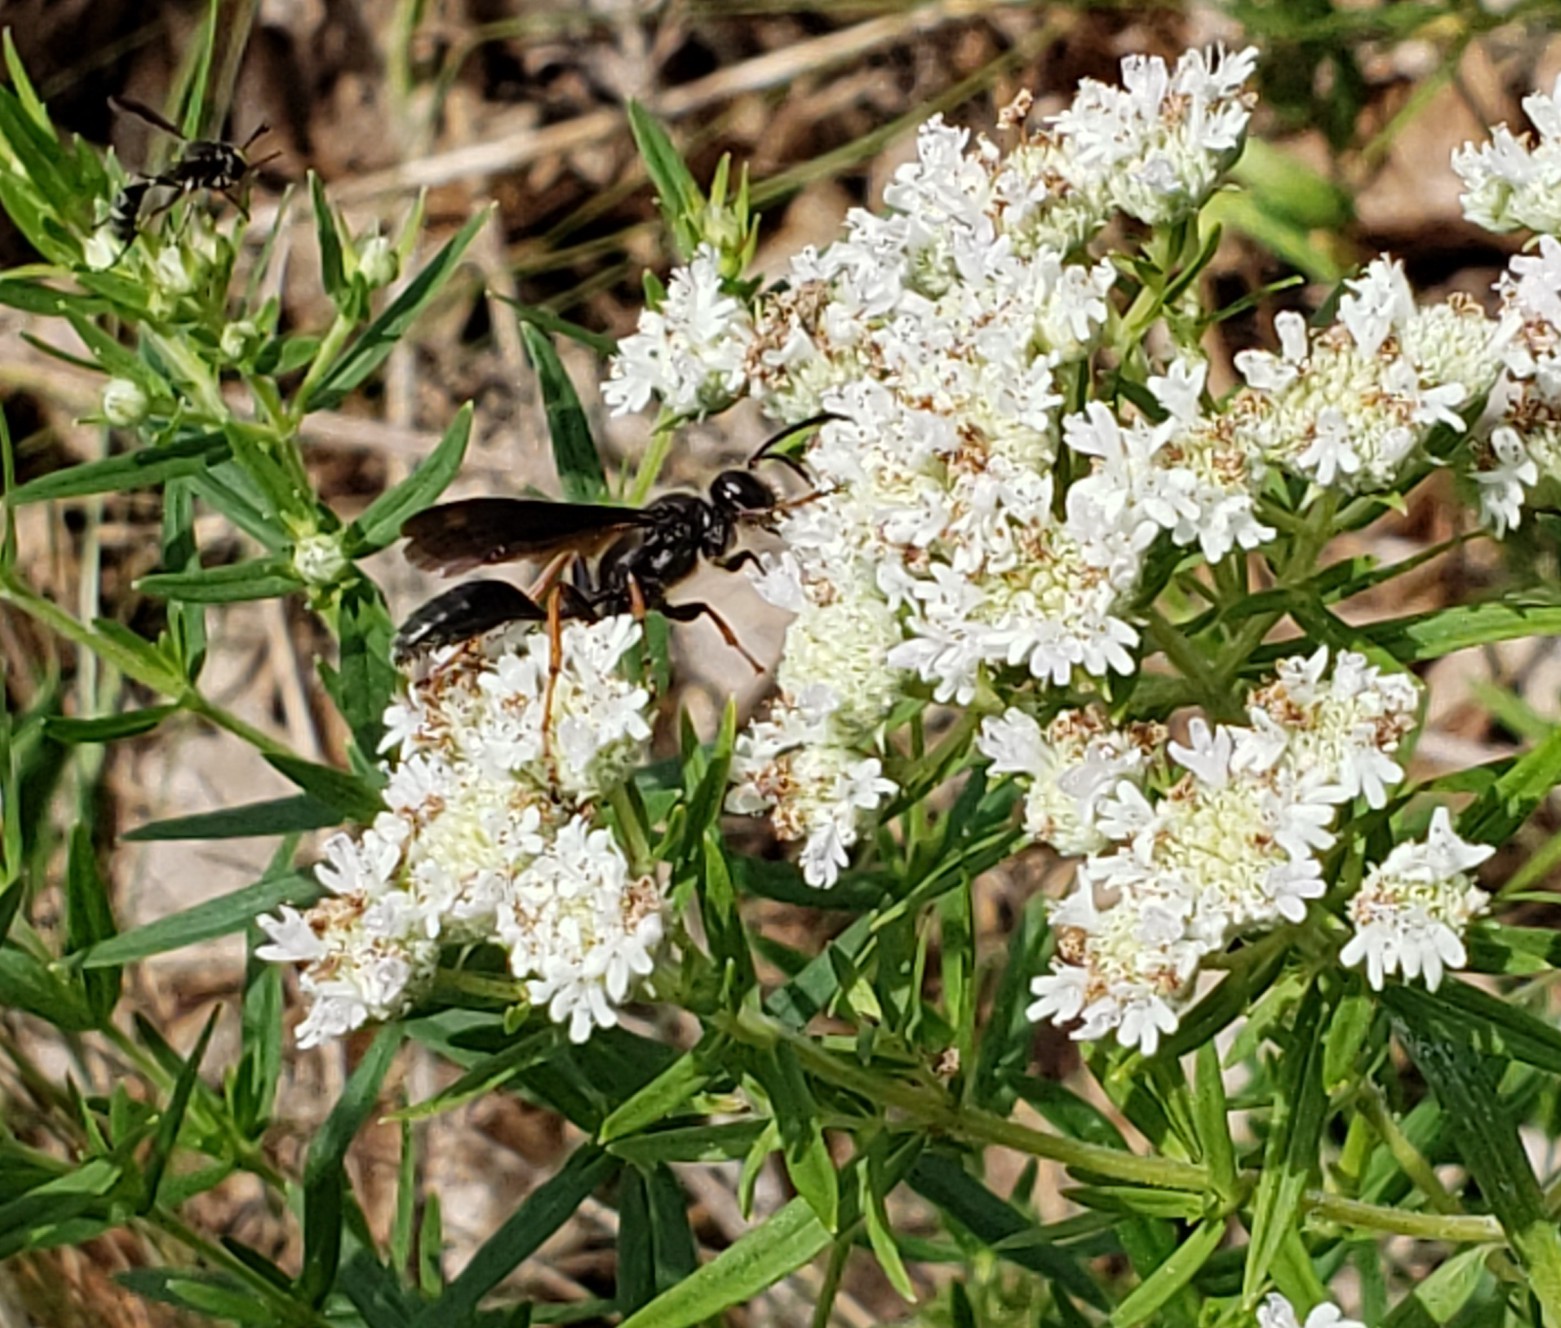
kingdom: Animalia
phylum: Arthropoda
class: Insecta
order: Hymenoptera
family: Sphecidae
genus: Isodontia
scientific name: Isodontia auripes
